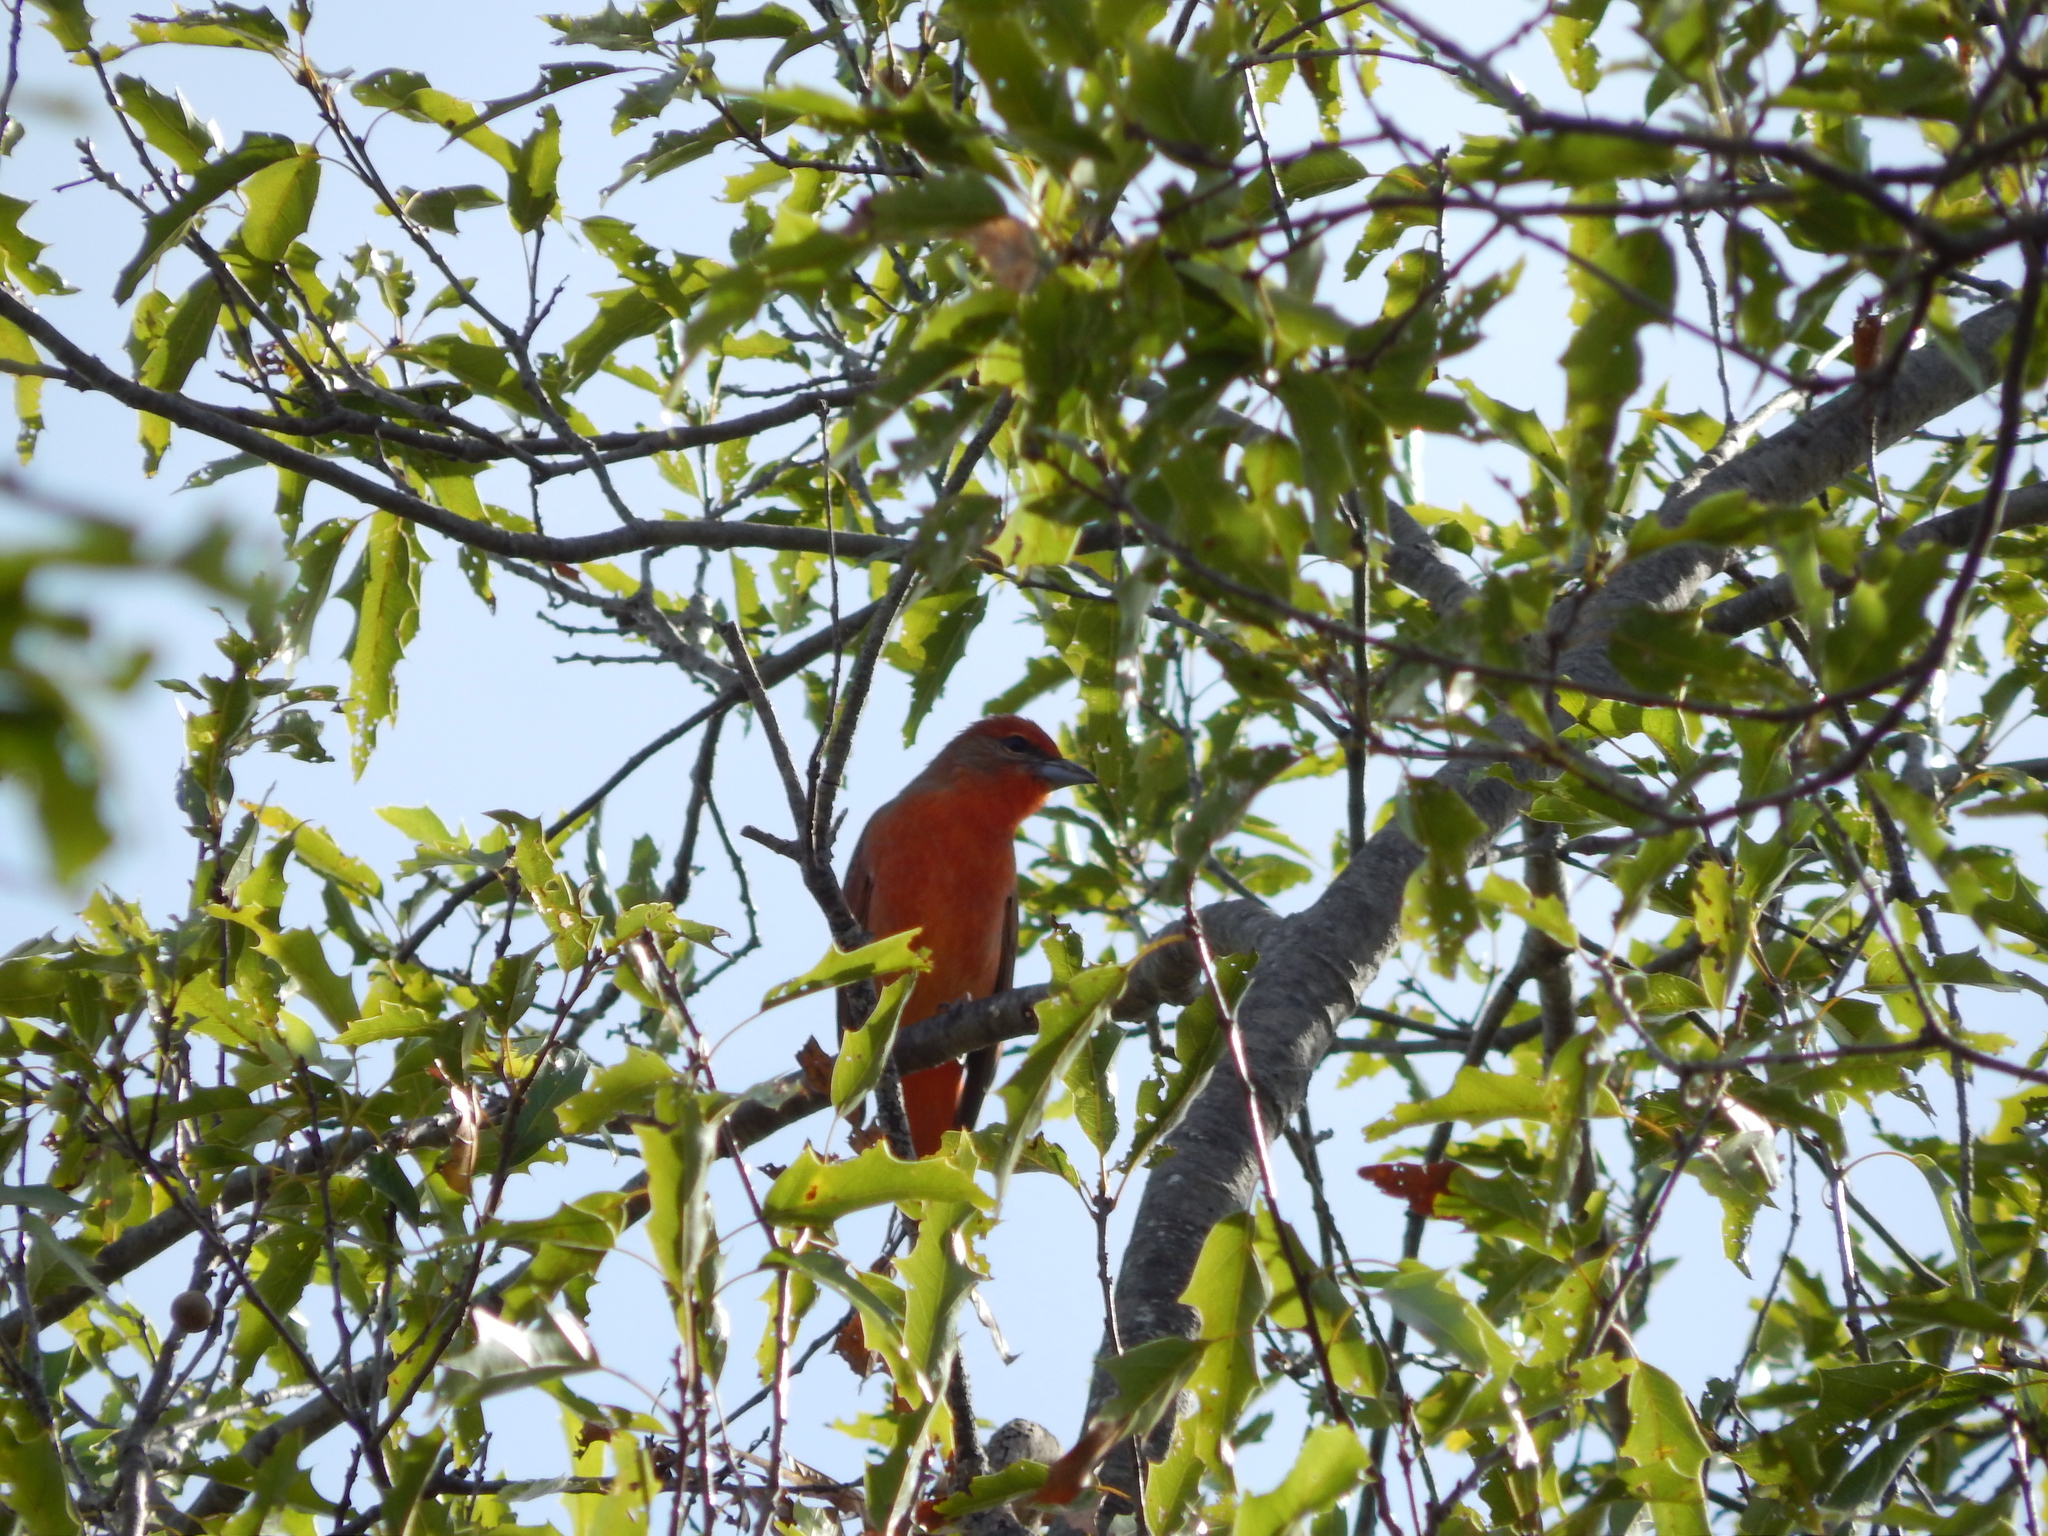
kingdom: Animalia
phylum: Chordata
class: Aves
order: Passeriformes
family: Cardinalidae
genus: Piranga
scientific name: Piranga flava
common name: Red tanager
